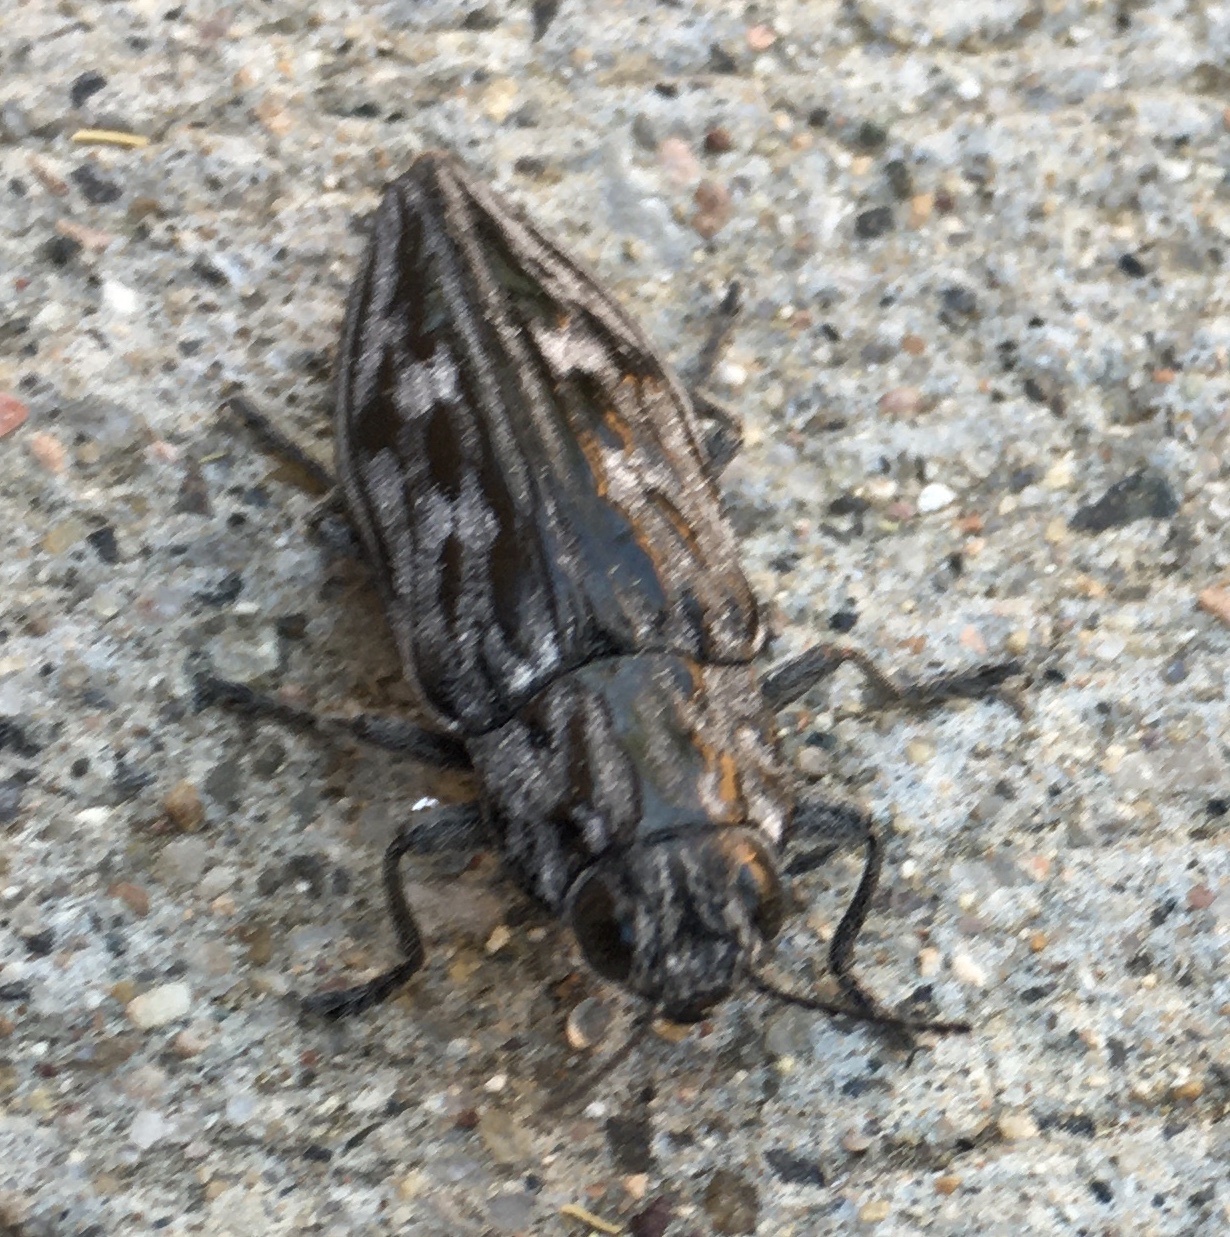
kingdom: Animalia
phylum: Arthropoda
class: Insecta
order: Coleoptera
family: Buprestidae
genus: Chalcophora
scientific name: Chalcophora angulicollis
